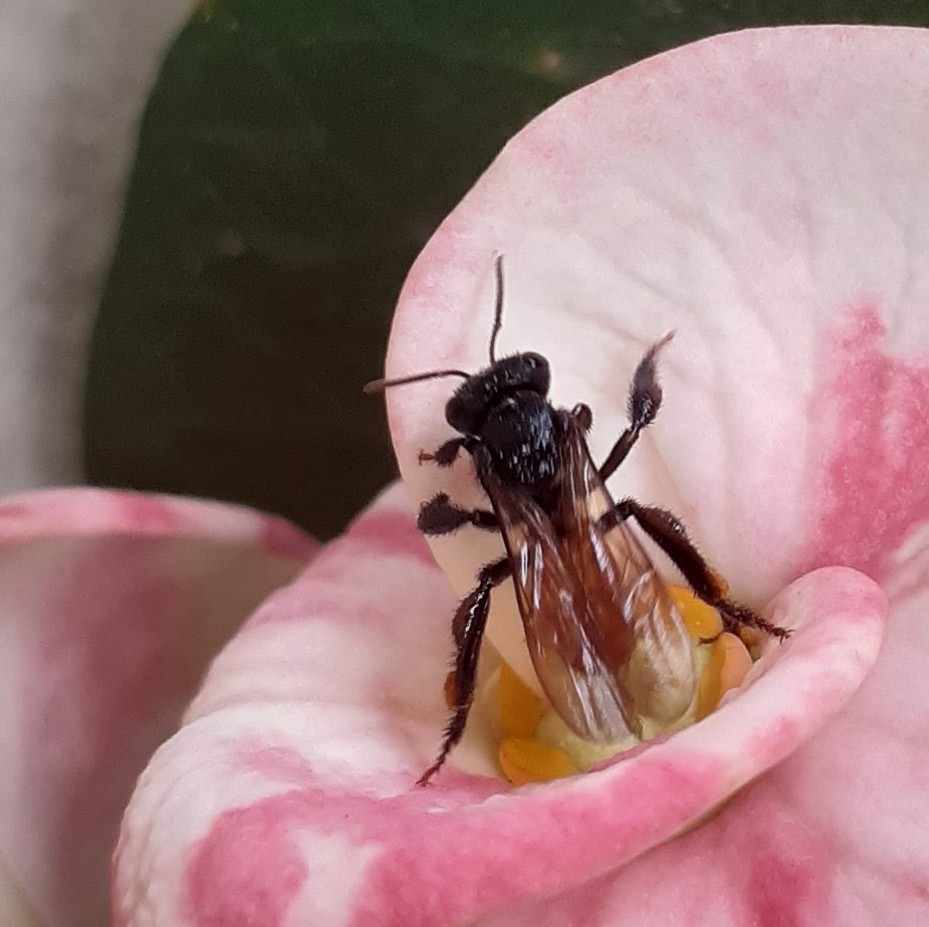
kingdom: Animalia
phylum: Arthropoda
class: Insecta
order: Hymenoptera
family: Apidae
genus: Trigona
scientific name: Trigona fulviventris
